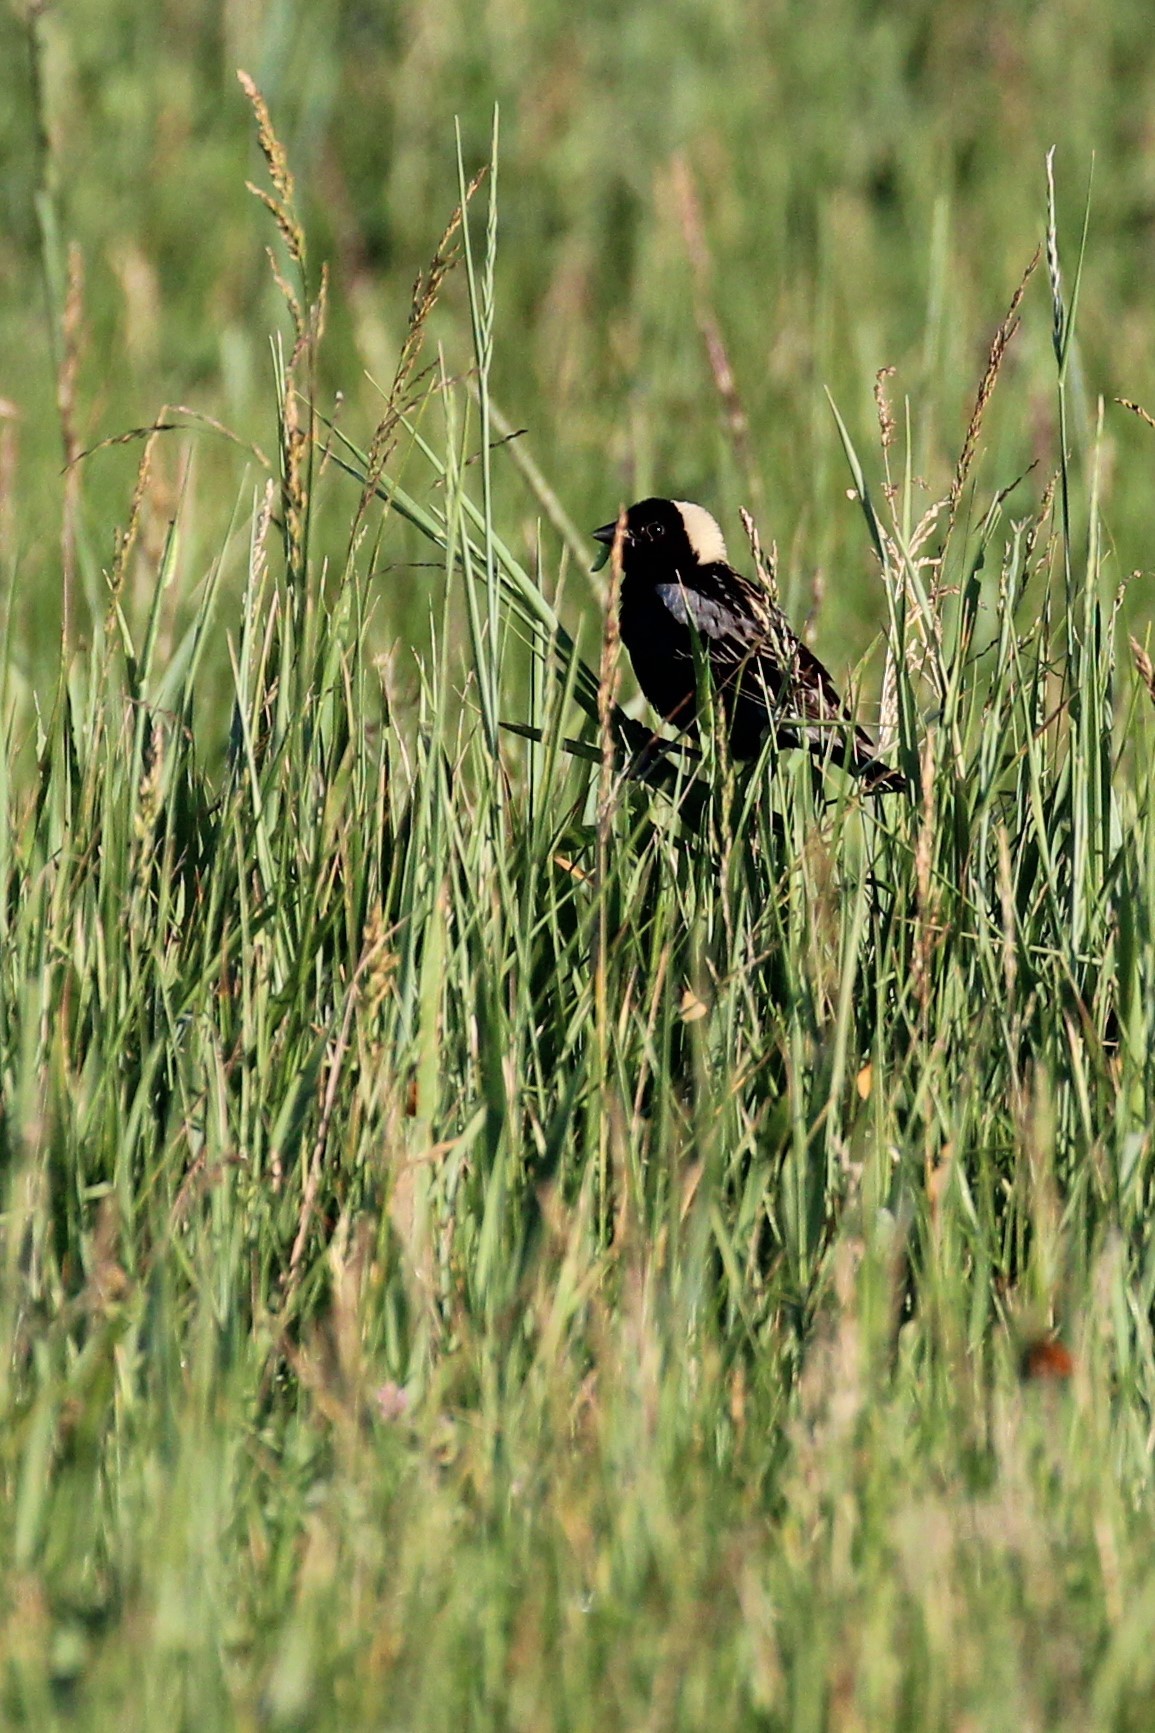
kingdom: Animalia
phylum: Chordata
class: Aves
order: Passeriformes
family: Icteridae
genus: Dolichonyx
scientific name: Dolichonyx oryzivorus
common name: Bobolink
